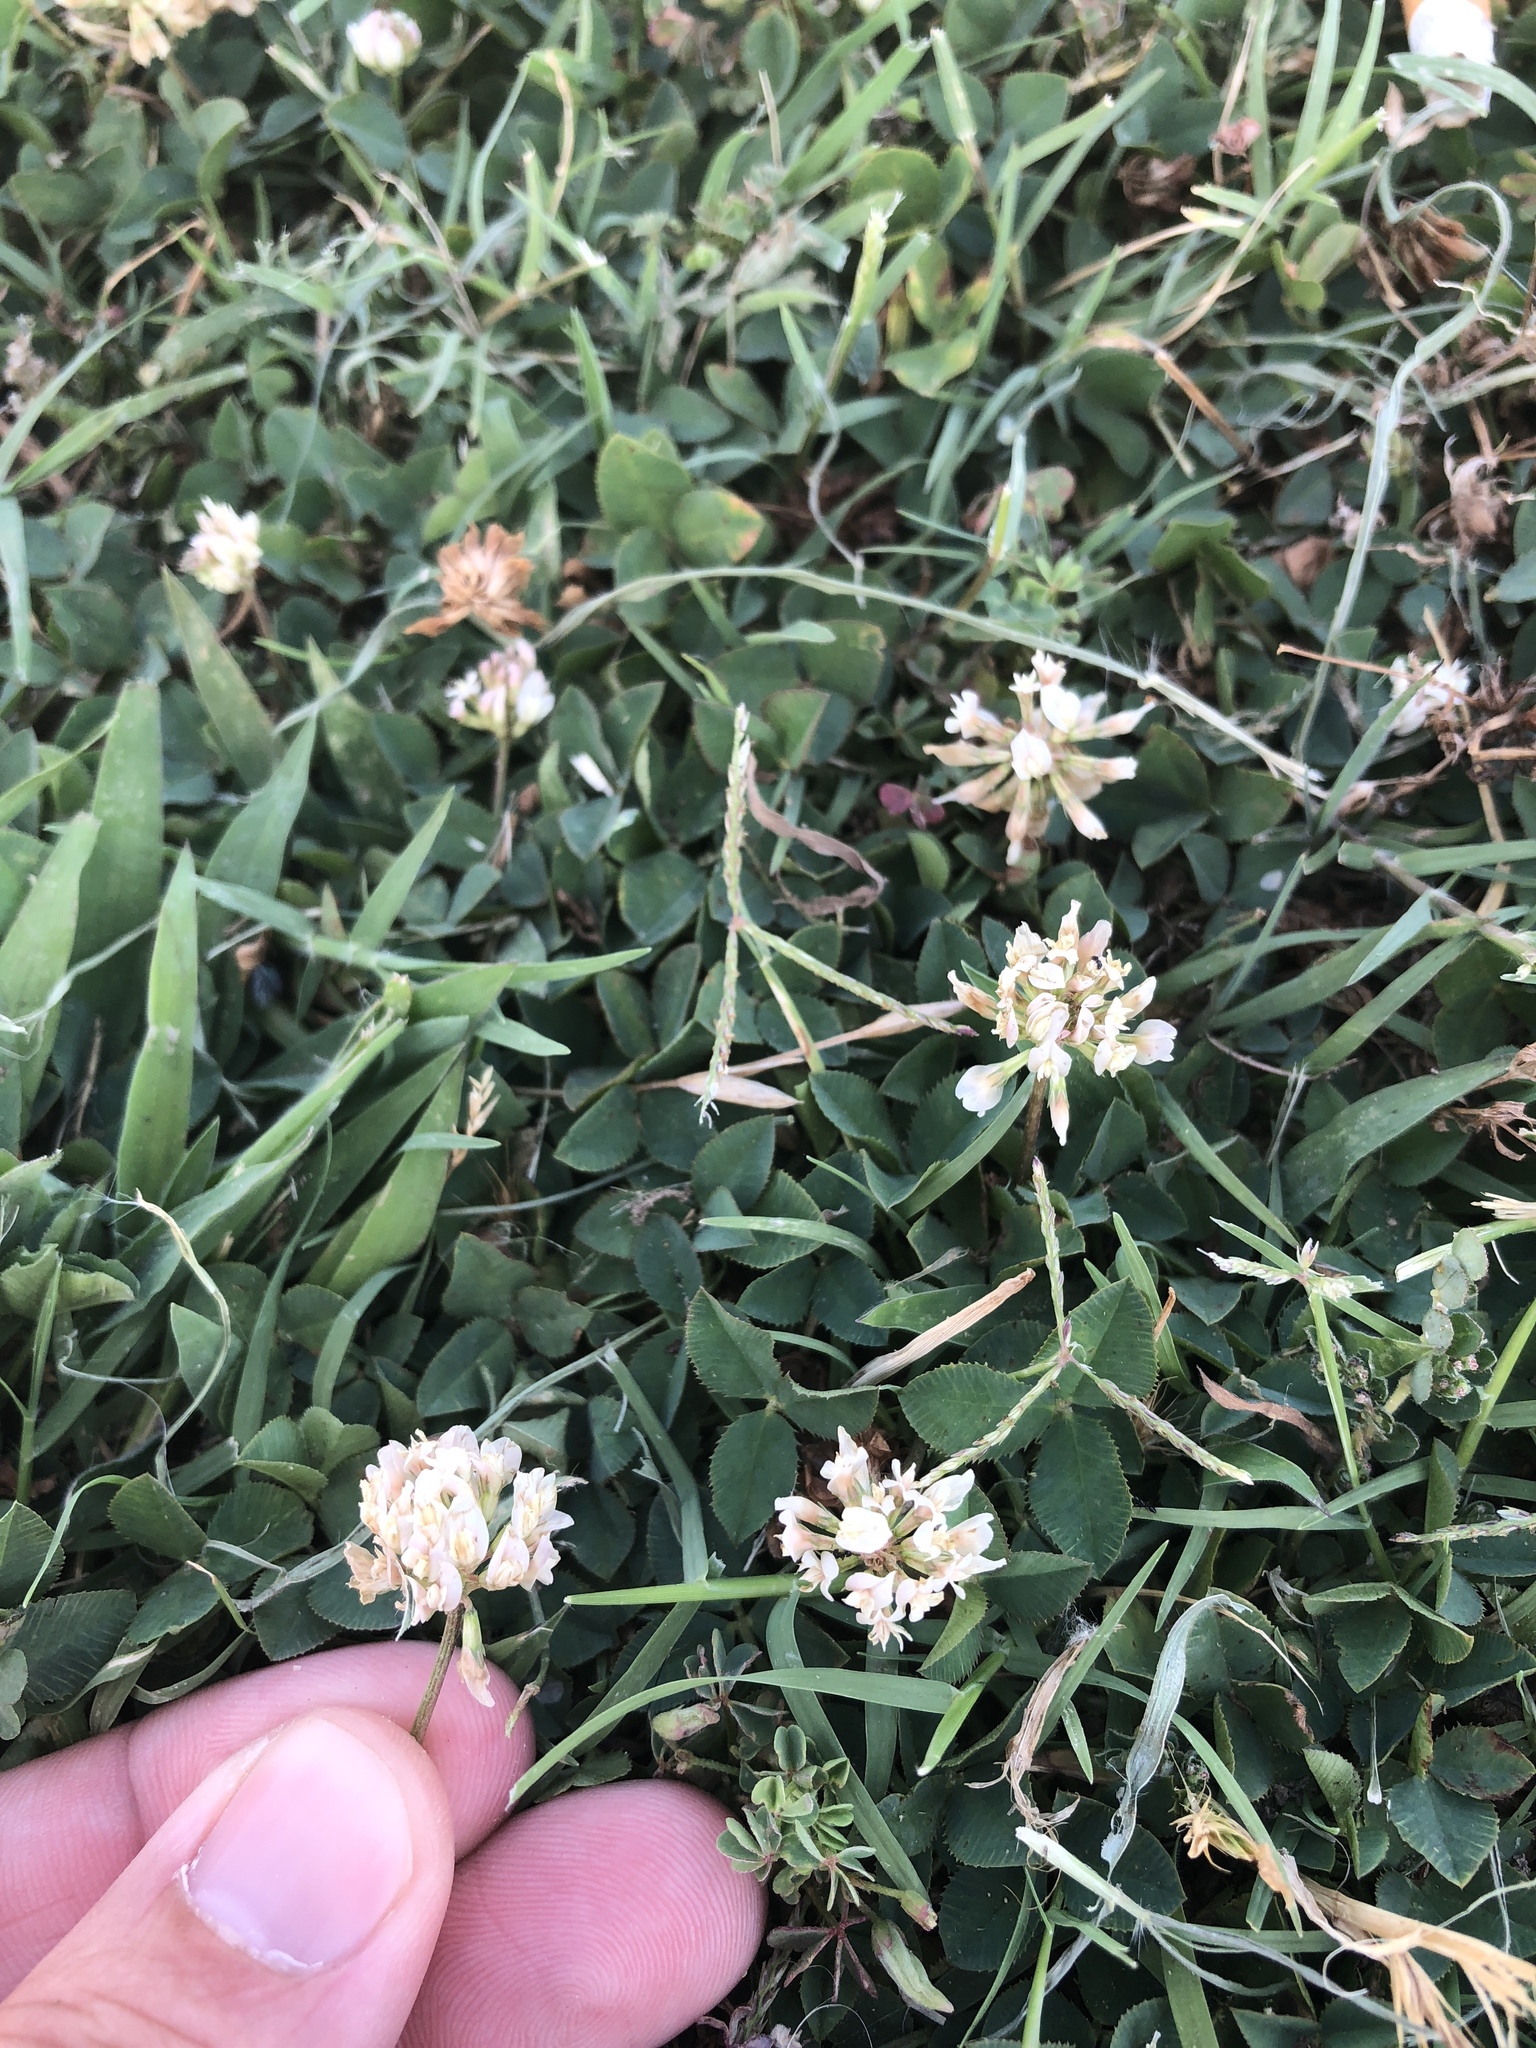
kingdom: Plantae
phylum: Tracheophyta
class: Magnoliopsida
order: Fabales
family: Fabaceae
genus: Trifolium
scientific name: Trifolium repens
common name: White clover
